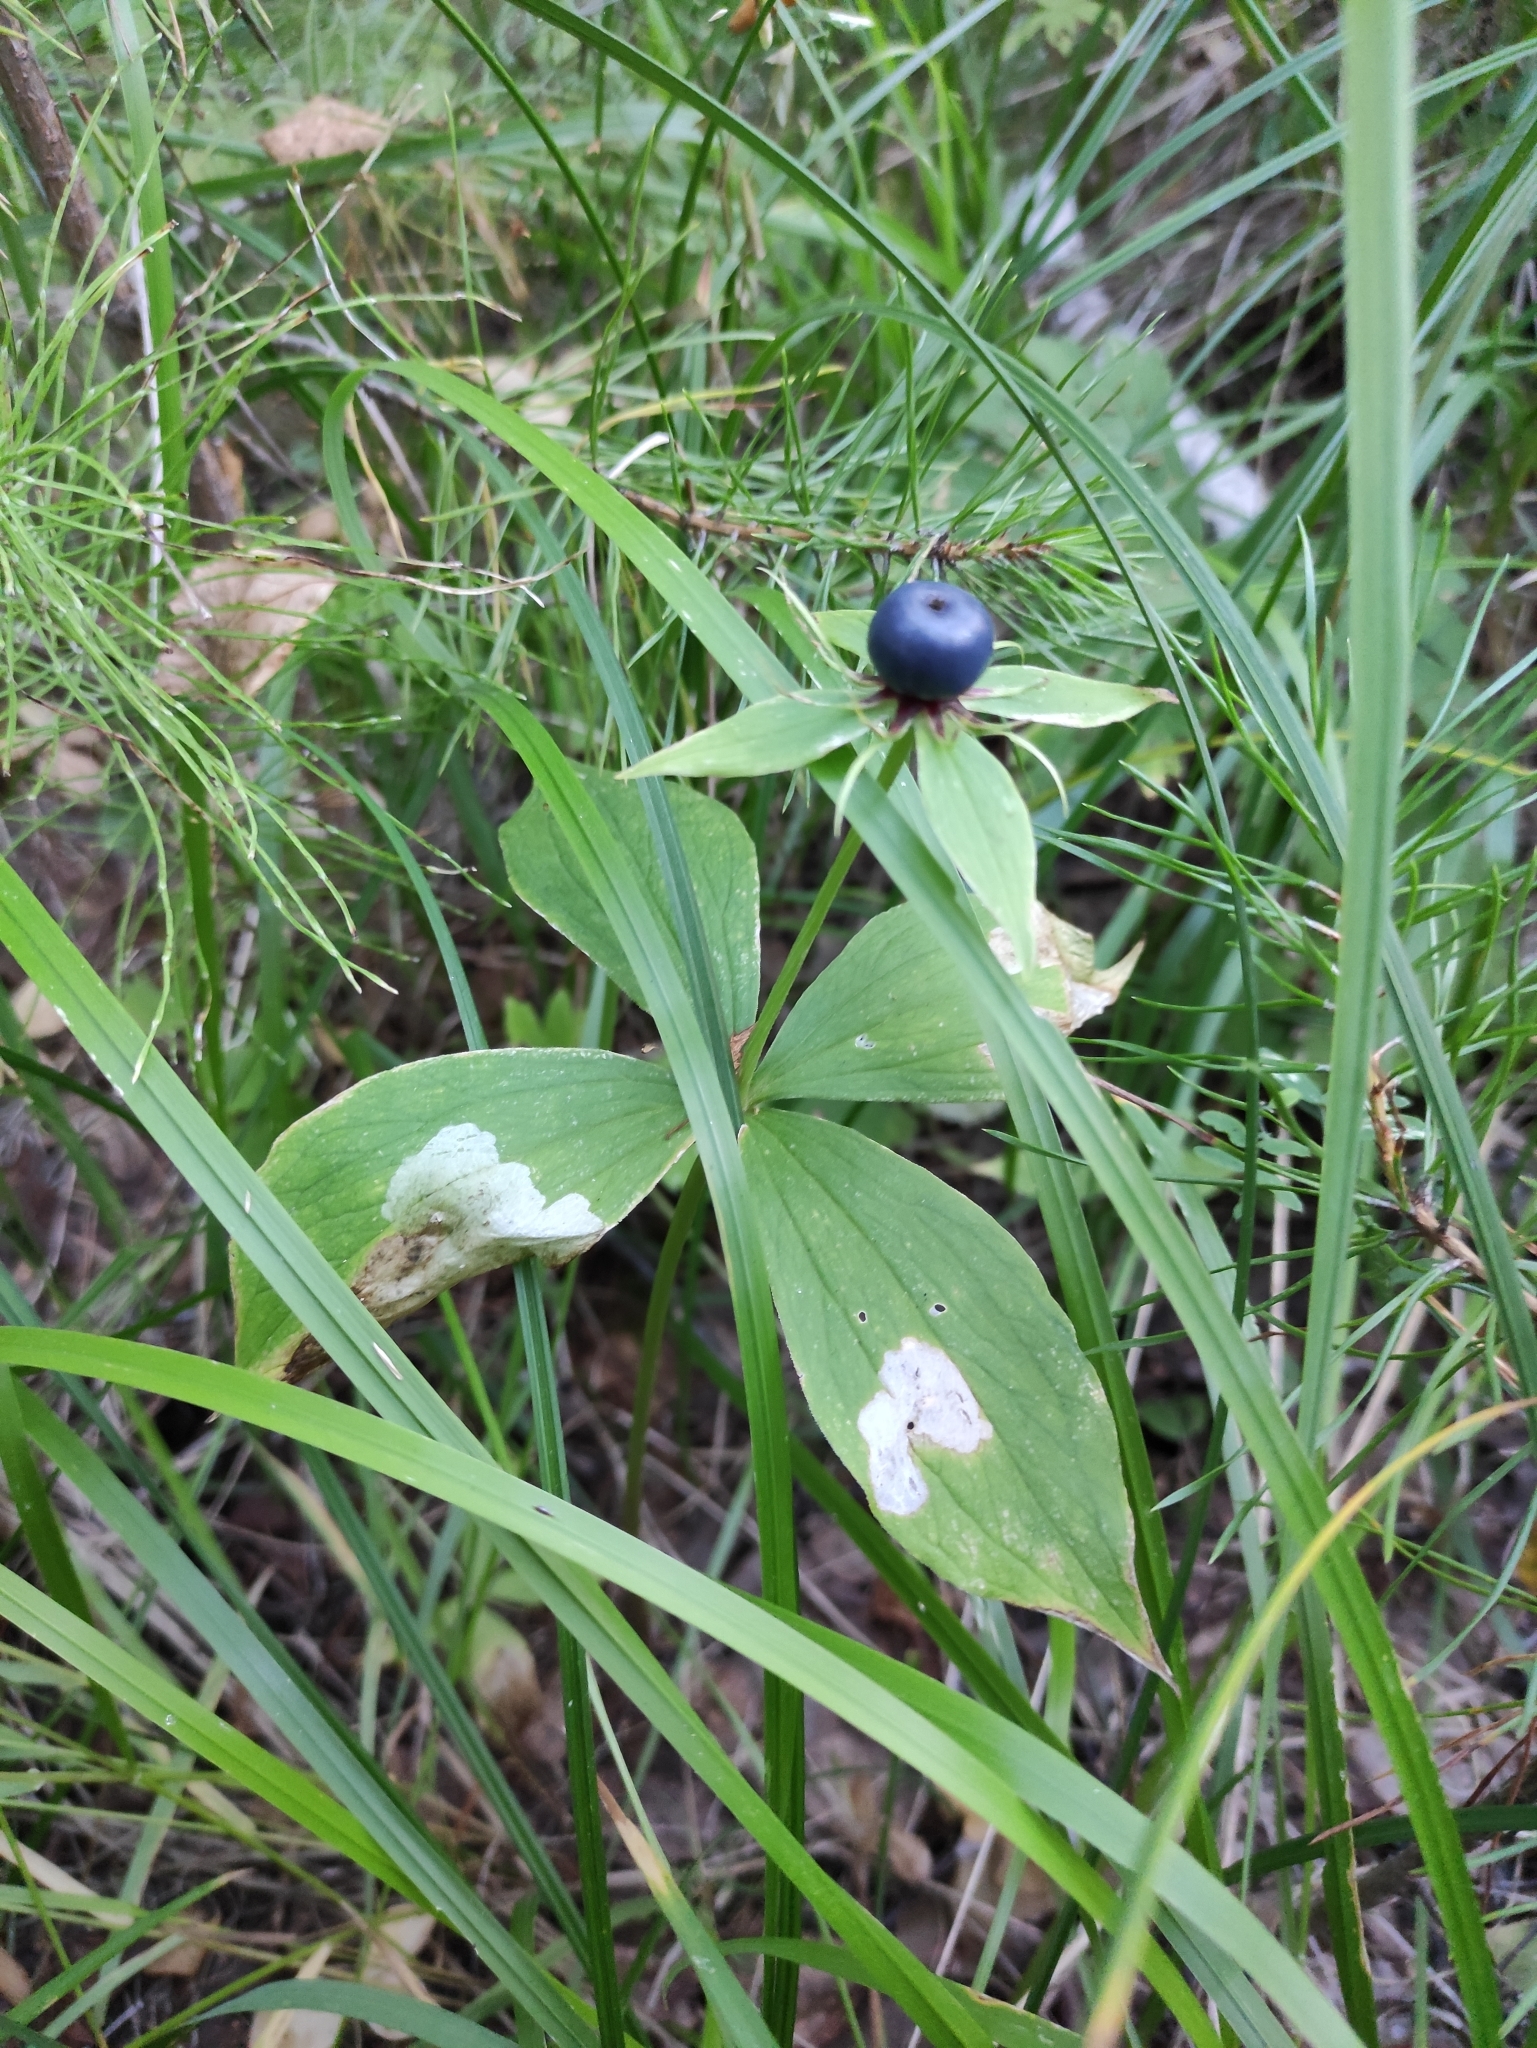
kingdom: Plantae
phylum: Tracheophyta
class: Liliopsida
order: Liliales
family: Melanthiaceae
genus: Paris
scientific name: Paris quadrifolia
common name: Herb-paris
